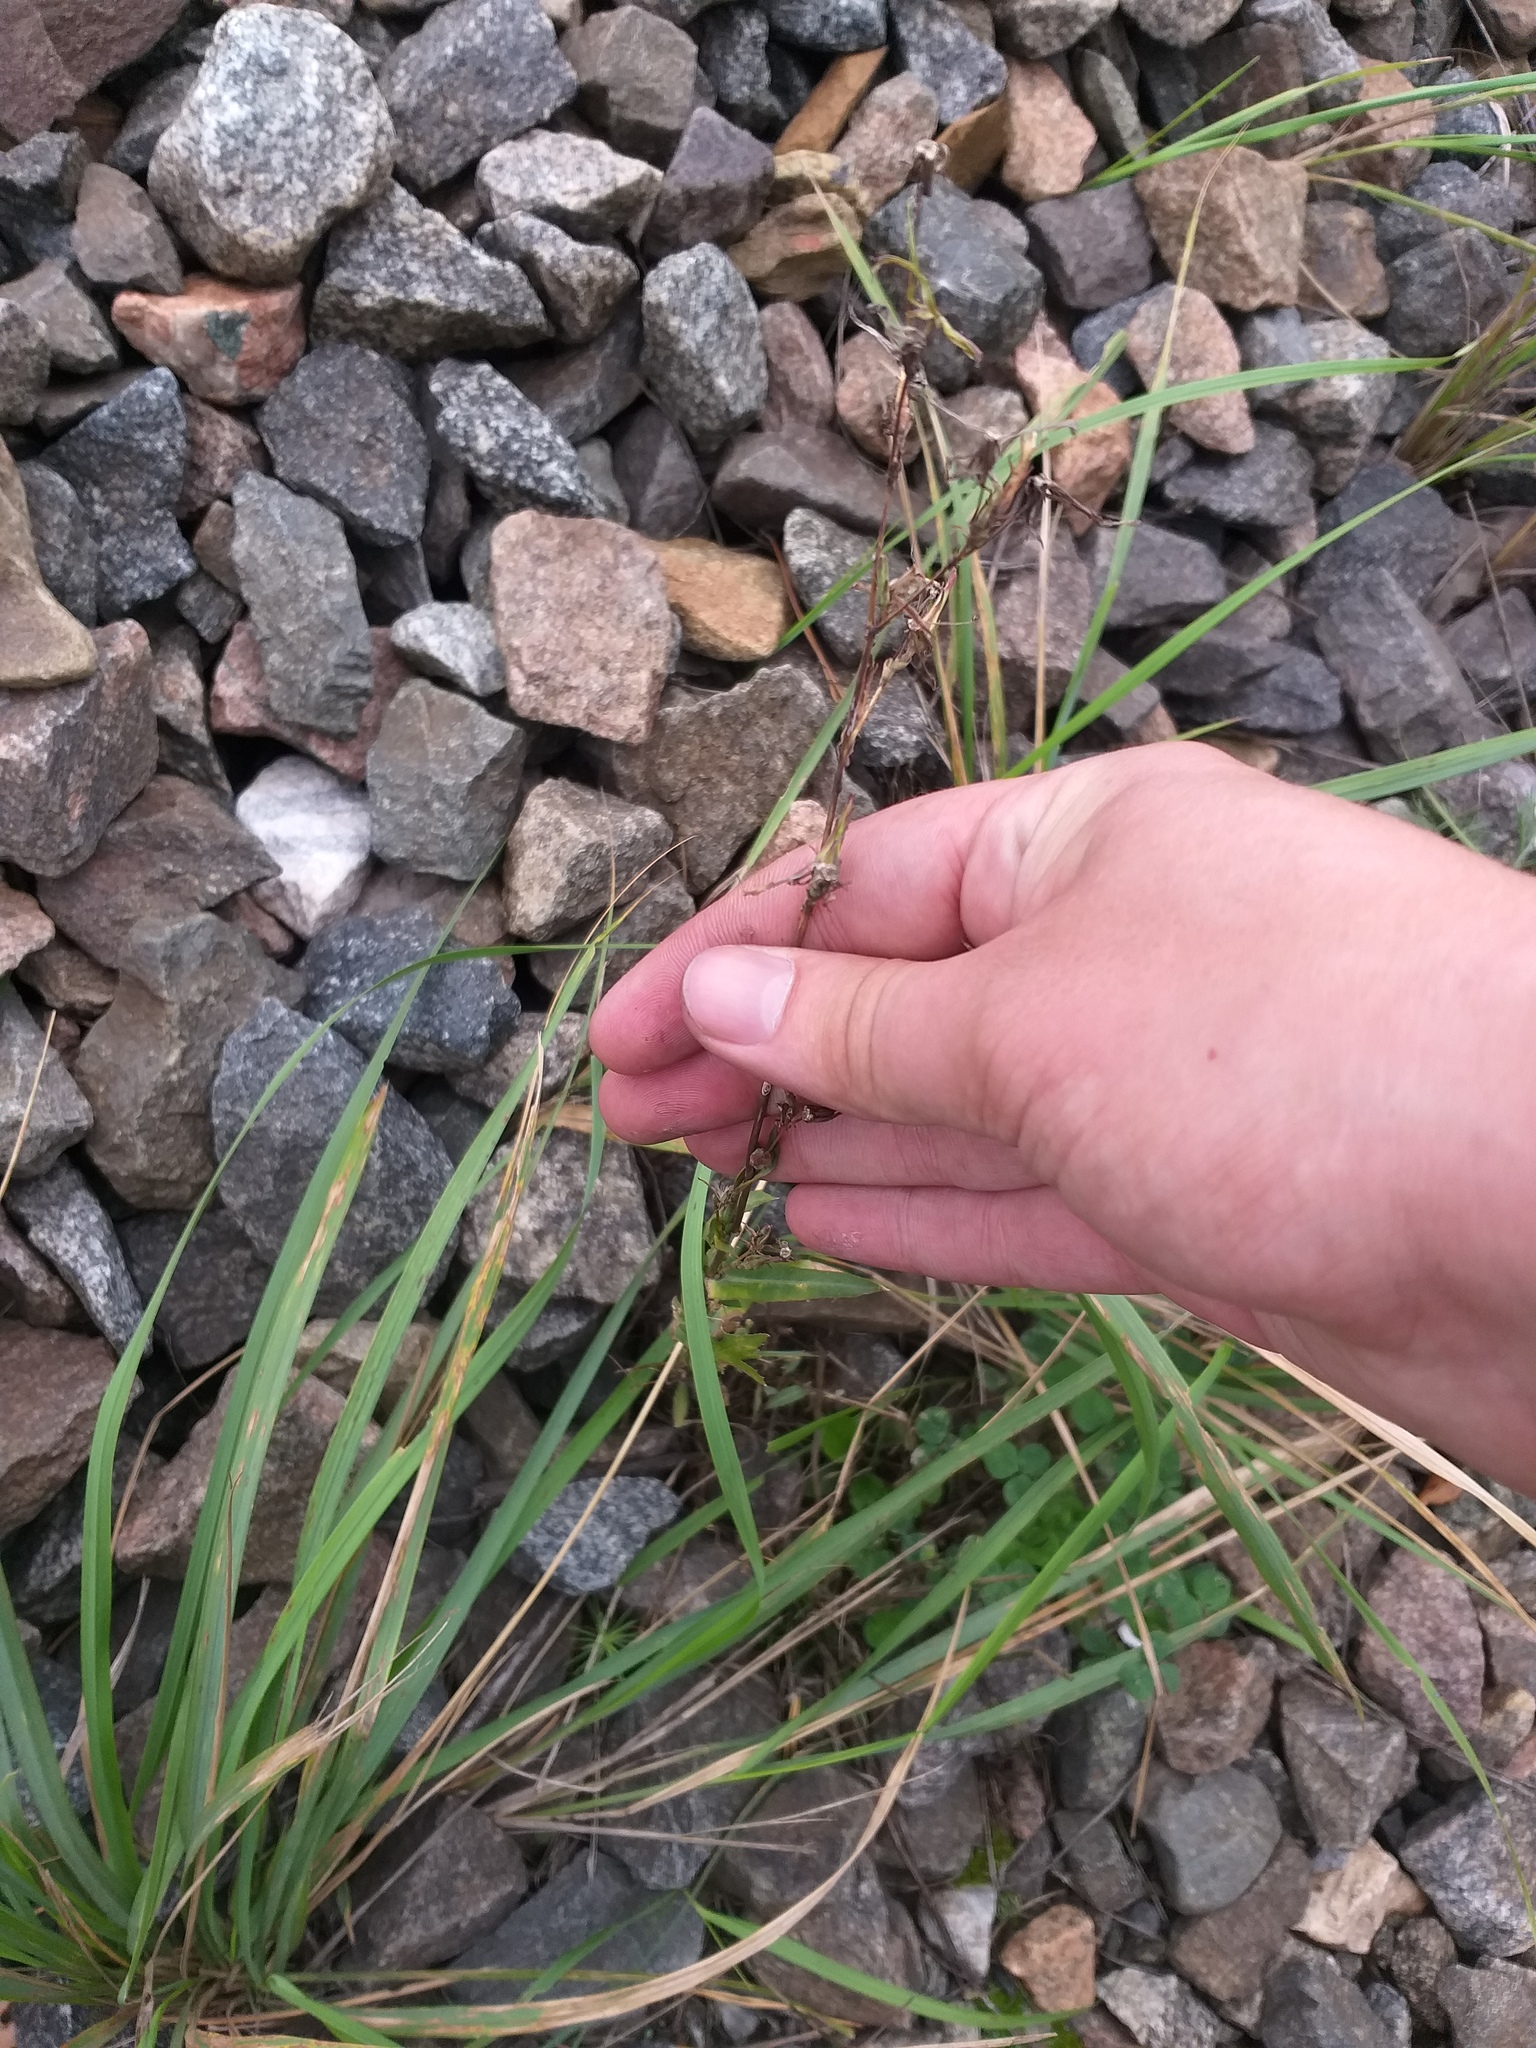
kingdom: Plantae
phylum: Tracheophyta
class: Magnoliopsida
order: Asterales
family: Asteraceae
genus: Lactuca
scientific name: Lactuca serriola
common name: Prickly lettuce
